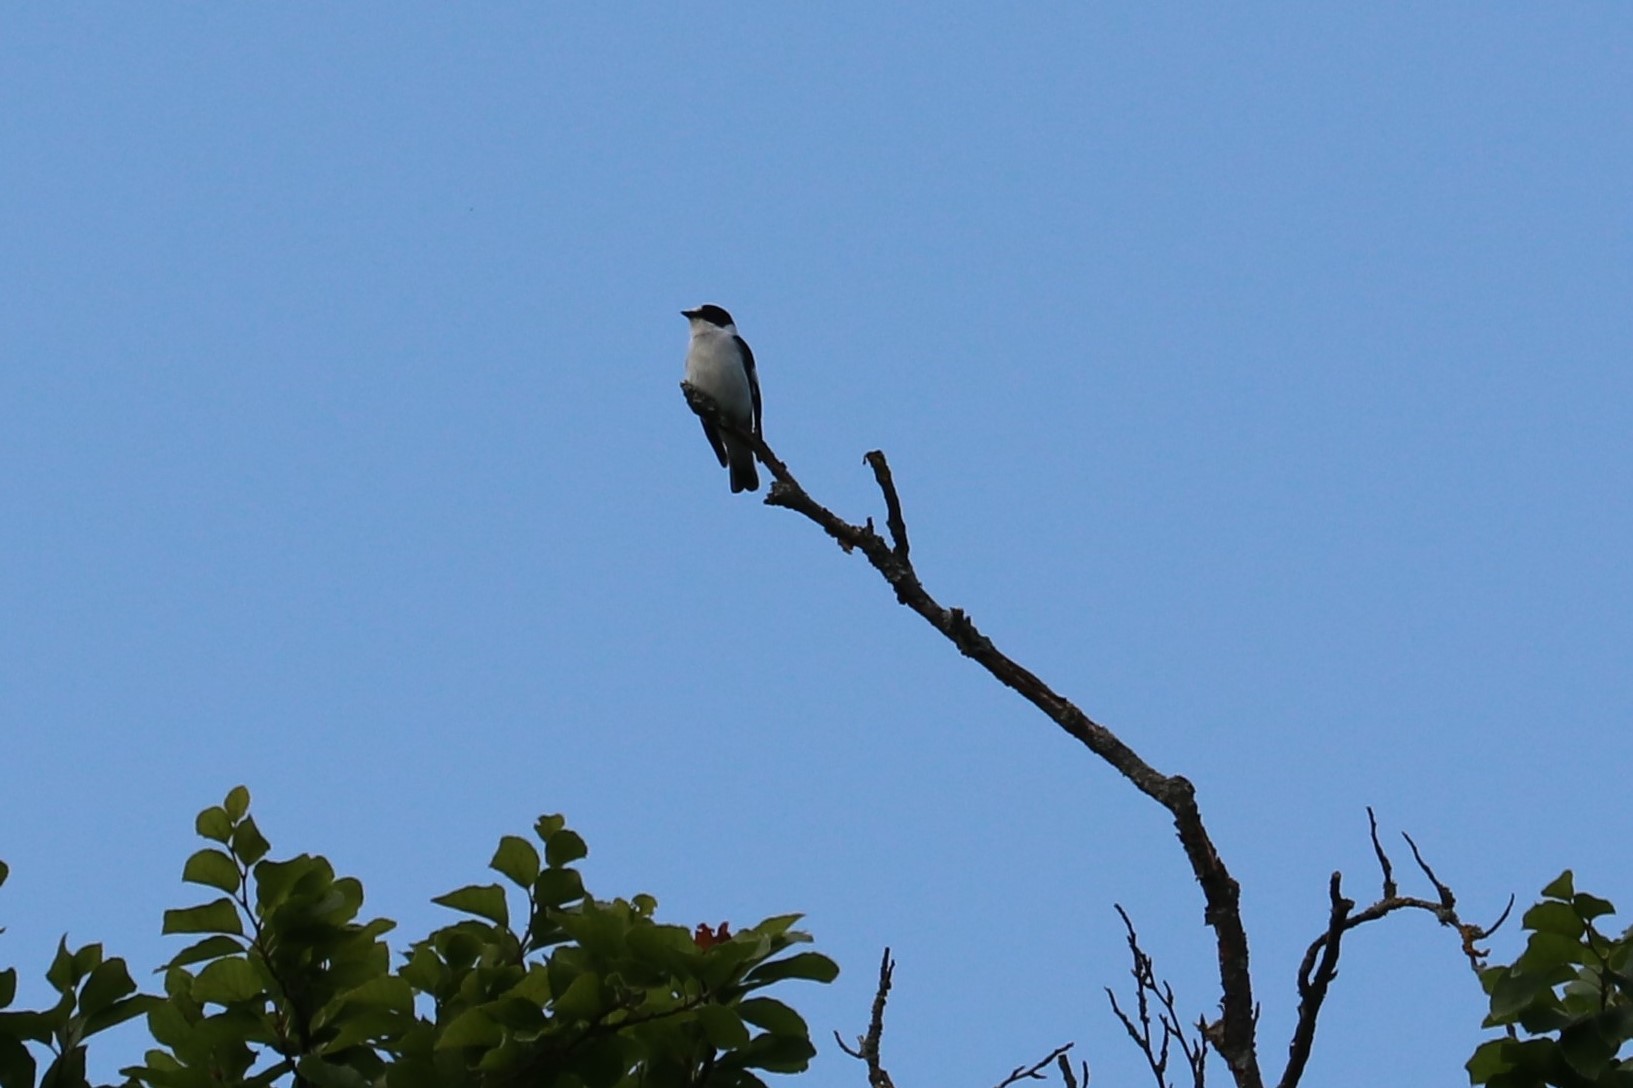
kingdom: Animalia
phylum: Chordata
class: Aves
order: Passeriformes
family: Muscicapidae
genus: Ficedula
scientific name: Ficedula albicollis
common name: Collared flycatcher
